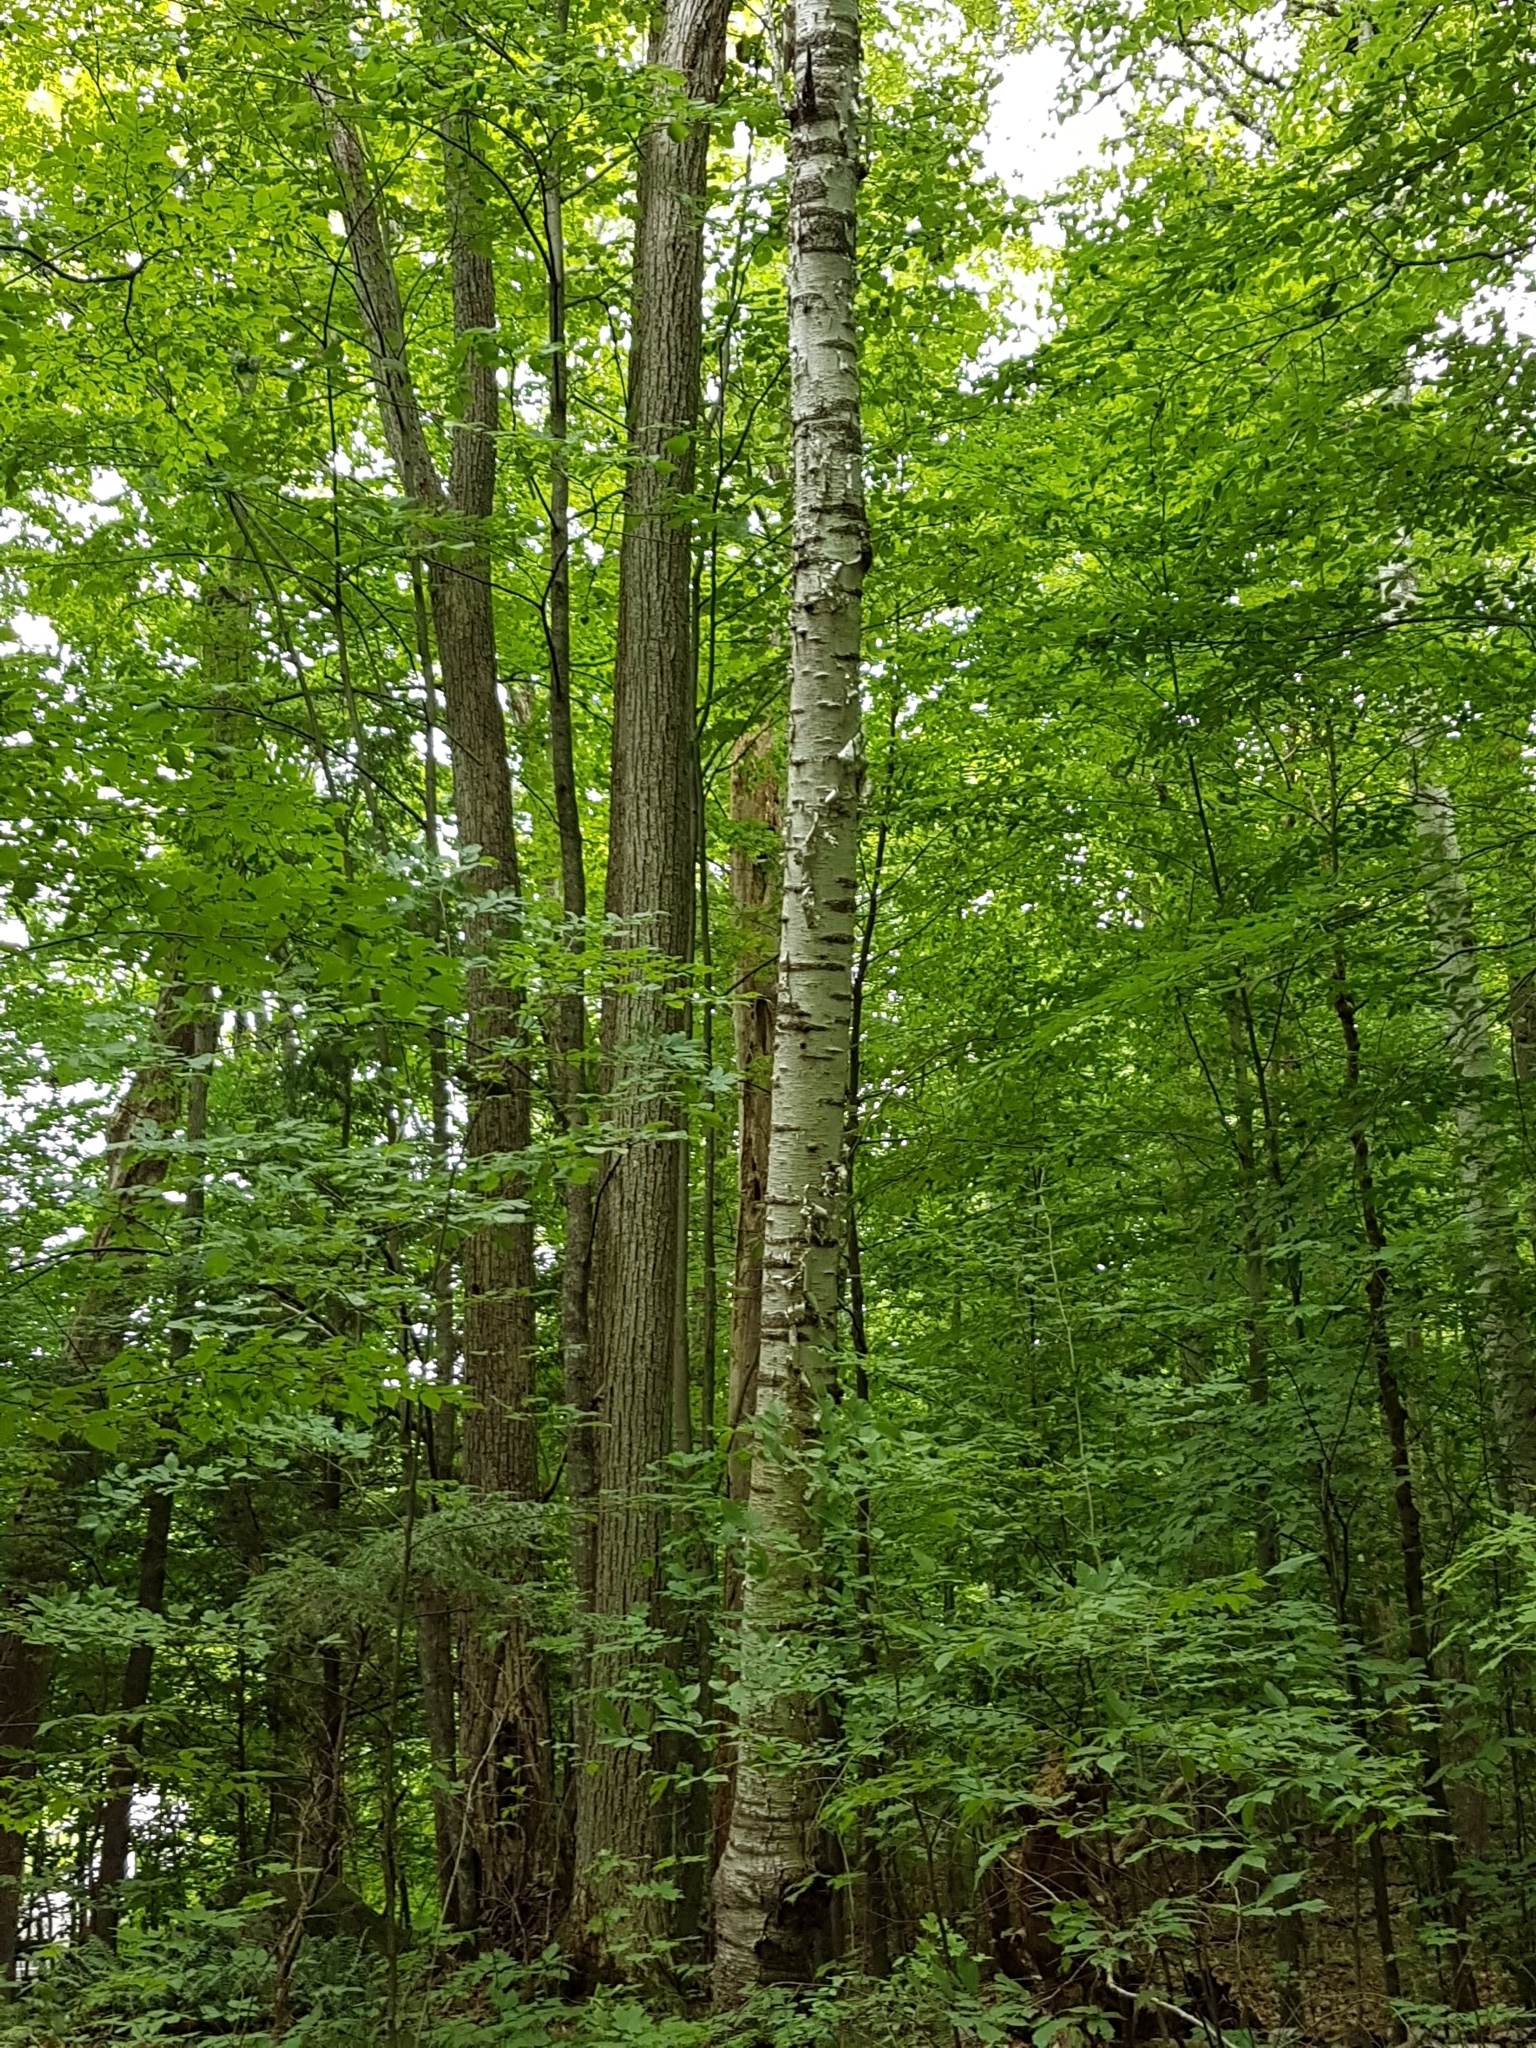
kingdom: Plantae
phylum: Tracheophyta
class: Magnoliopsida
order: Fagales
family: Betulaceae
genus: Betula
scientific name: Betula papyrifera
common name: Paper birch
